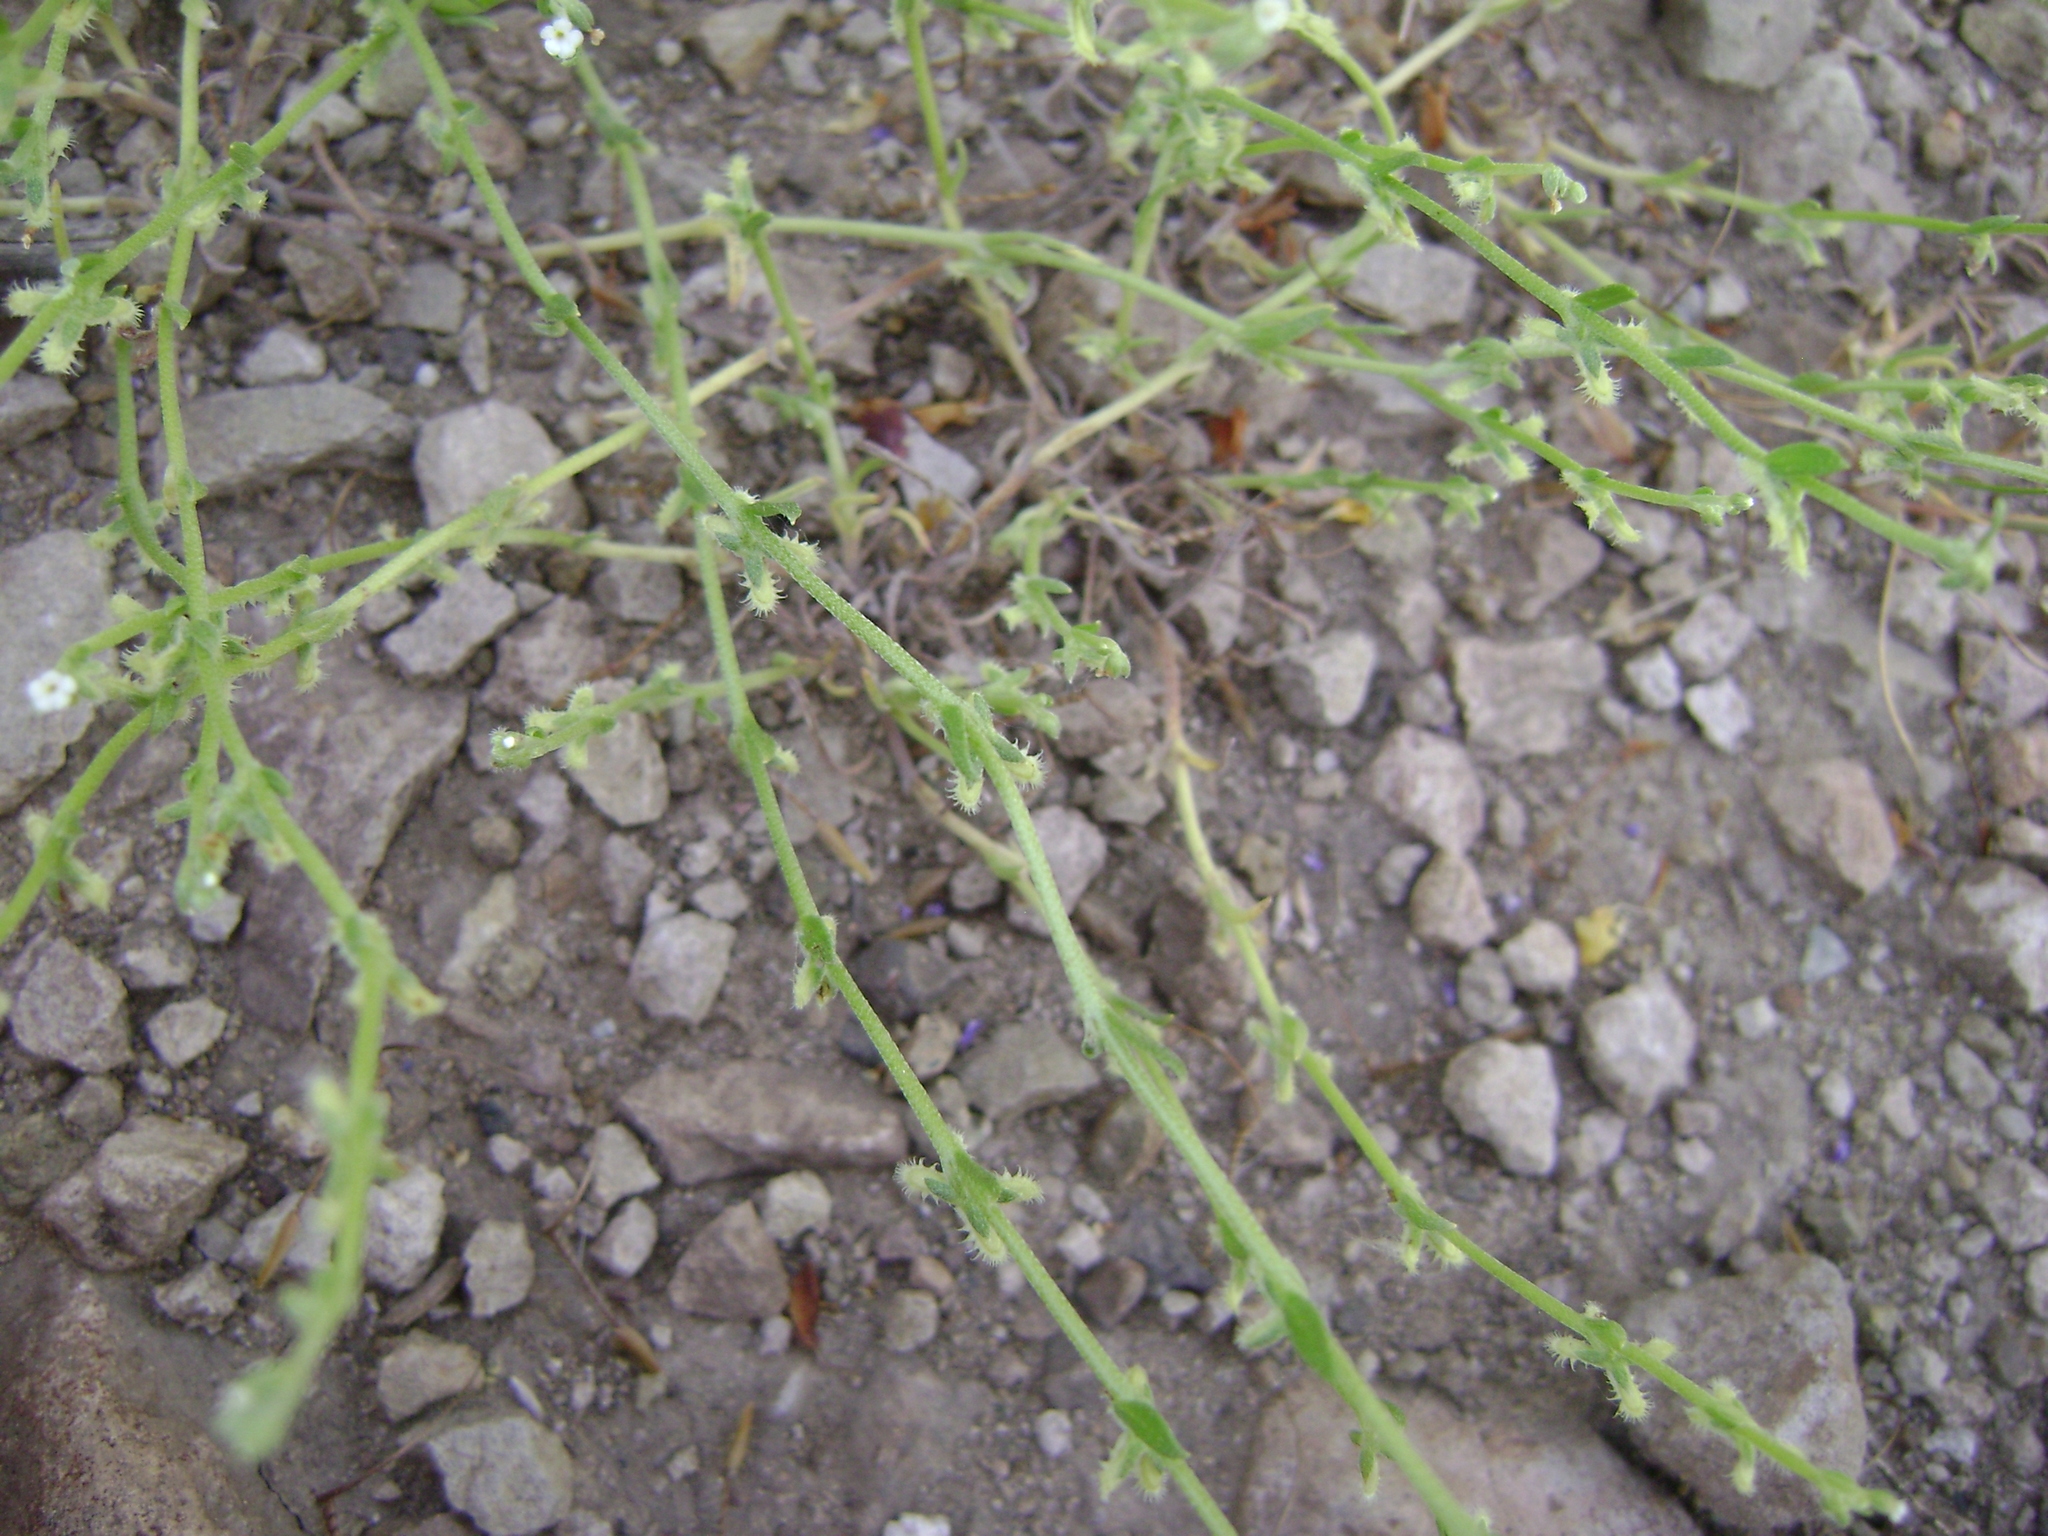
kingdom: Plantae
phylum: Tracheophyta
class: Magnoliopsida
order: Boraginales
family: Boraginaceae
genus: Pectocarya
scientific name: Pectocarya linearis
